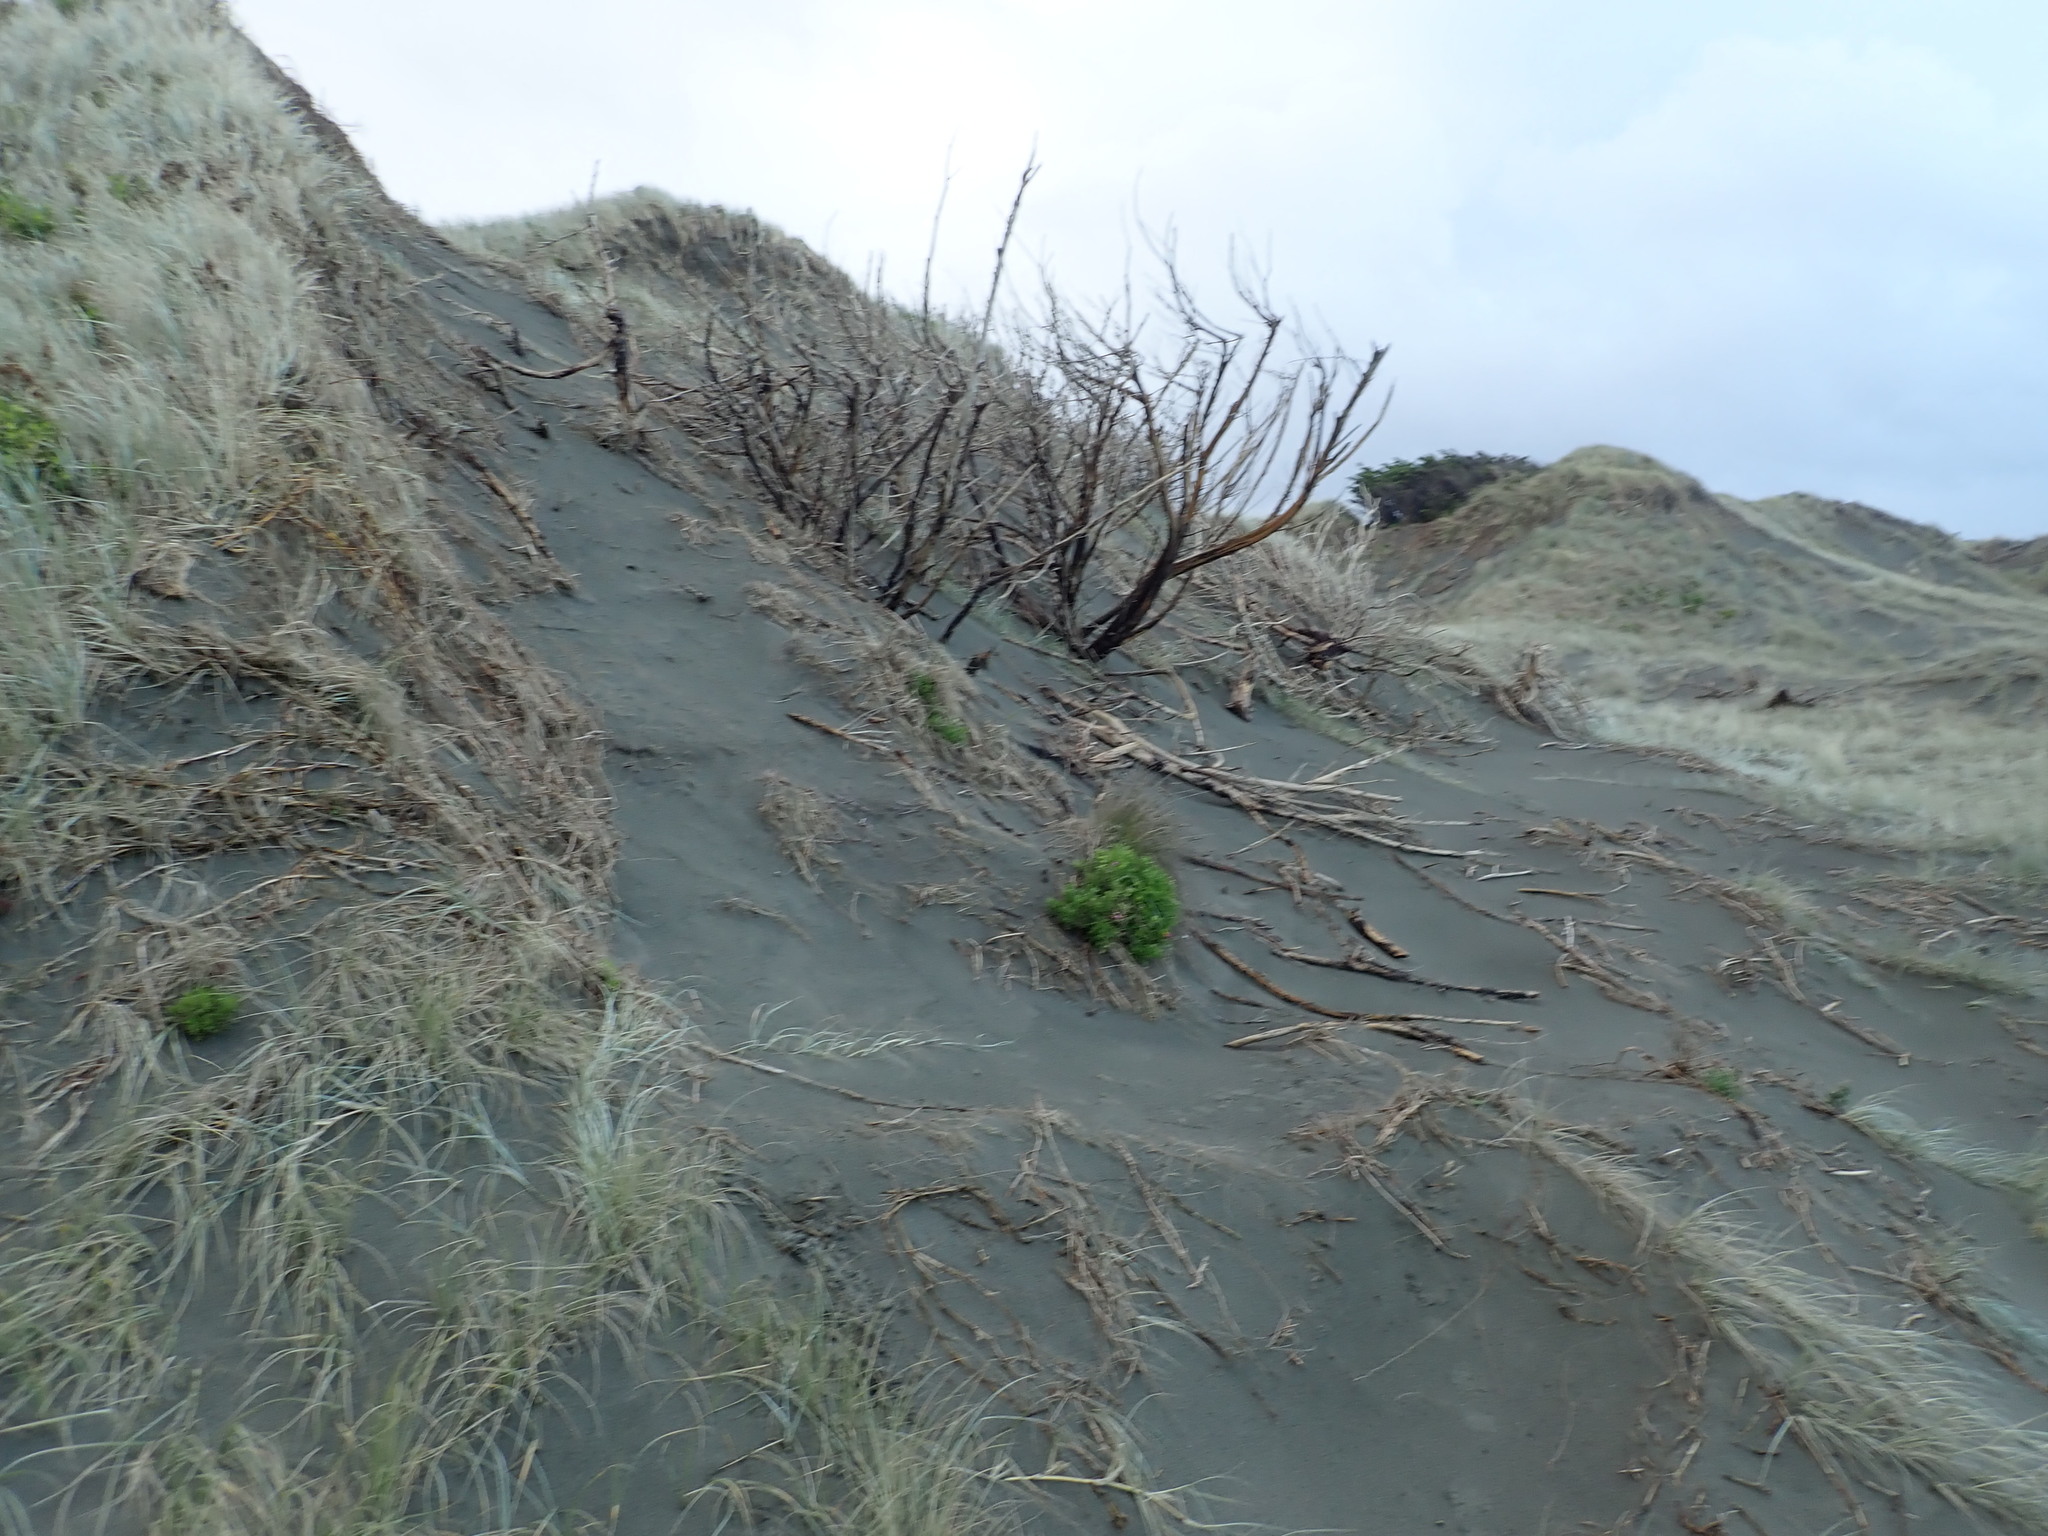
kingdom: Plantae
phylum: Tracheophyta
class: Magnoliopsida
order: Asterales
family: Asteraceae
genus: Senecio
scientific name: Senecio elegans
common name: Purple groundsel
